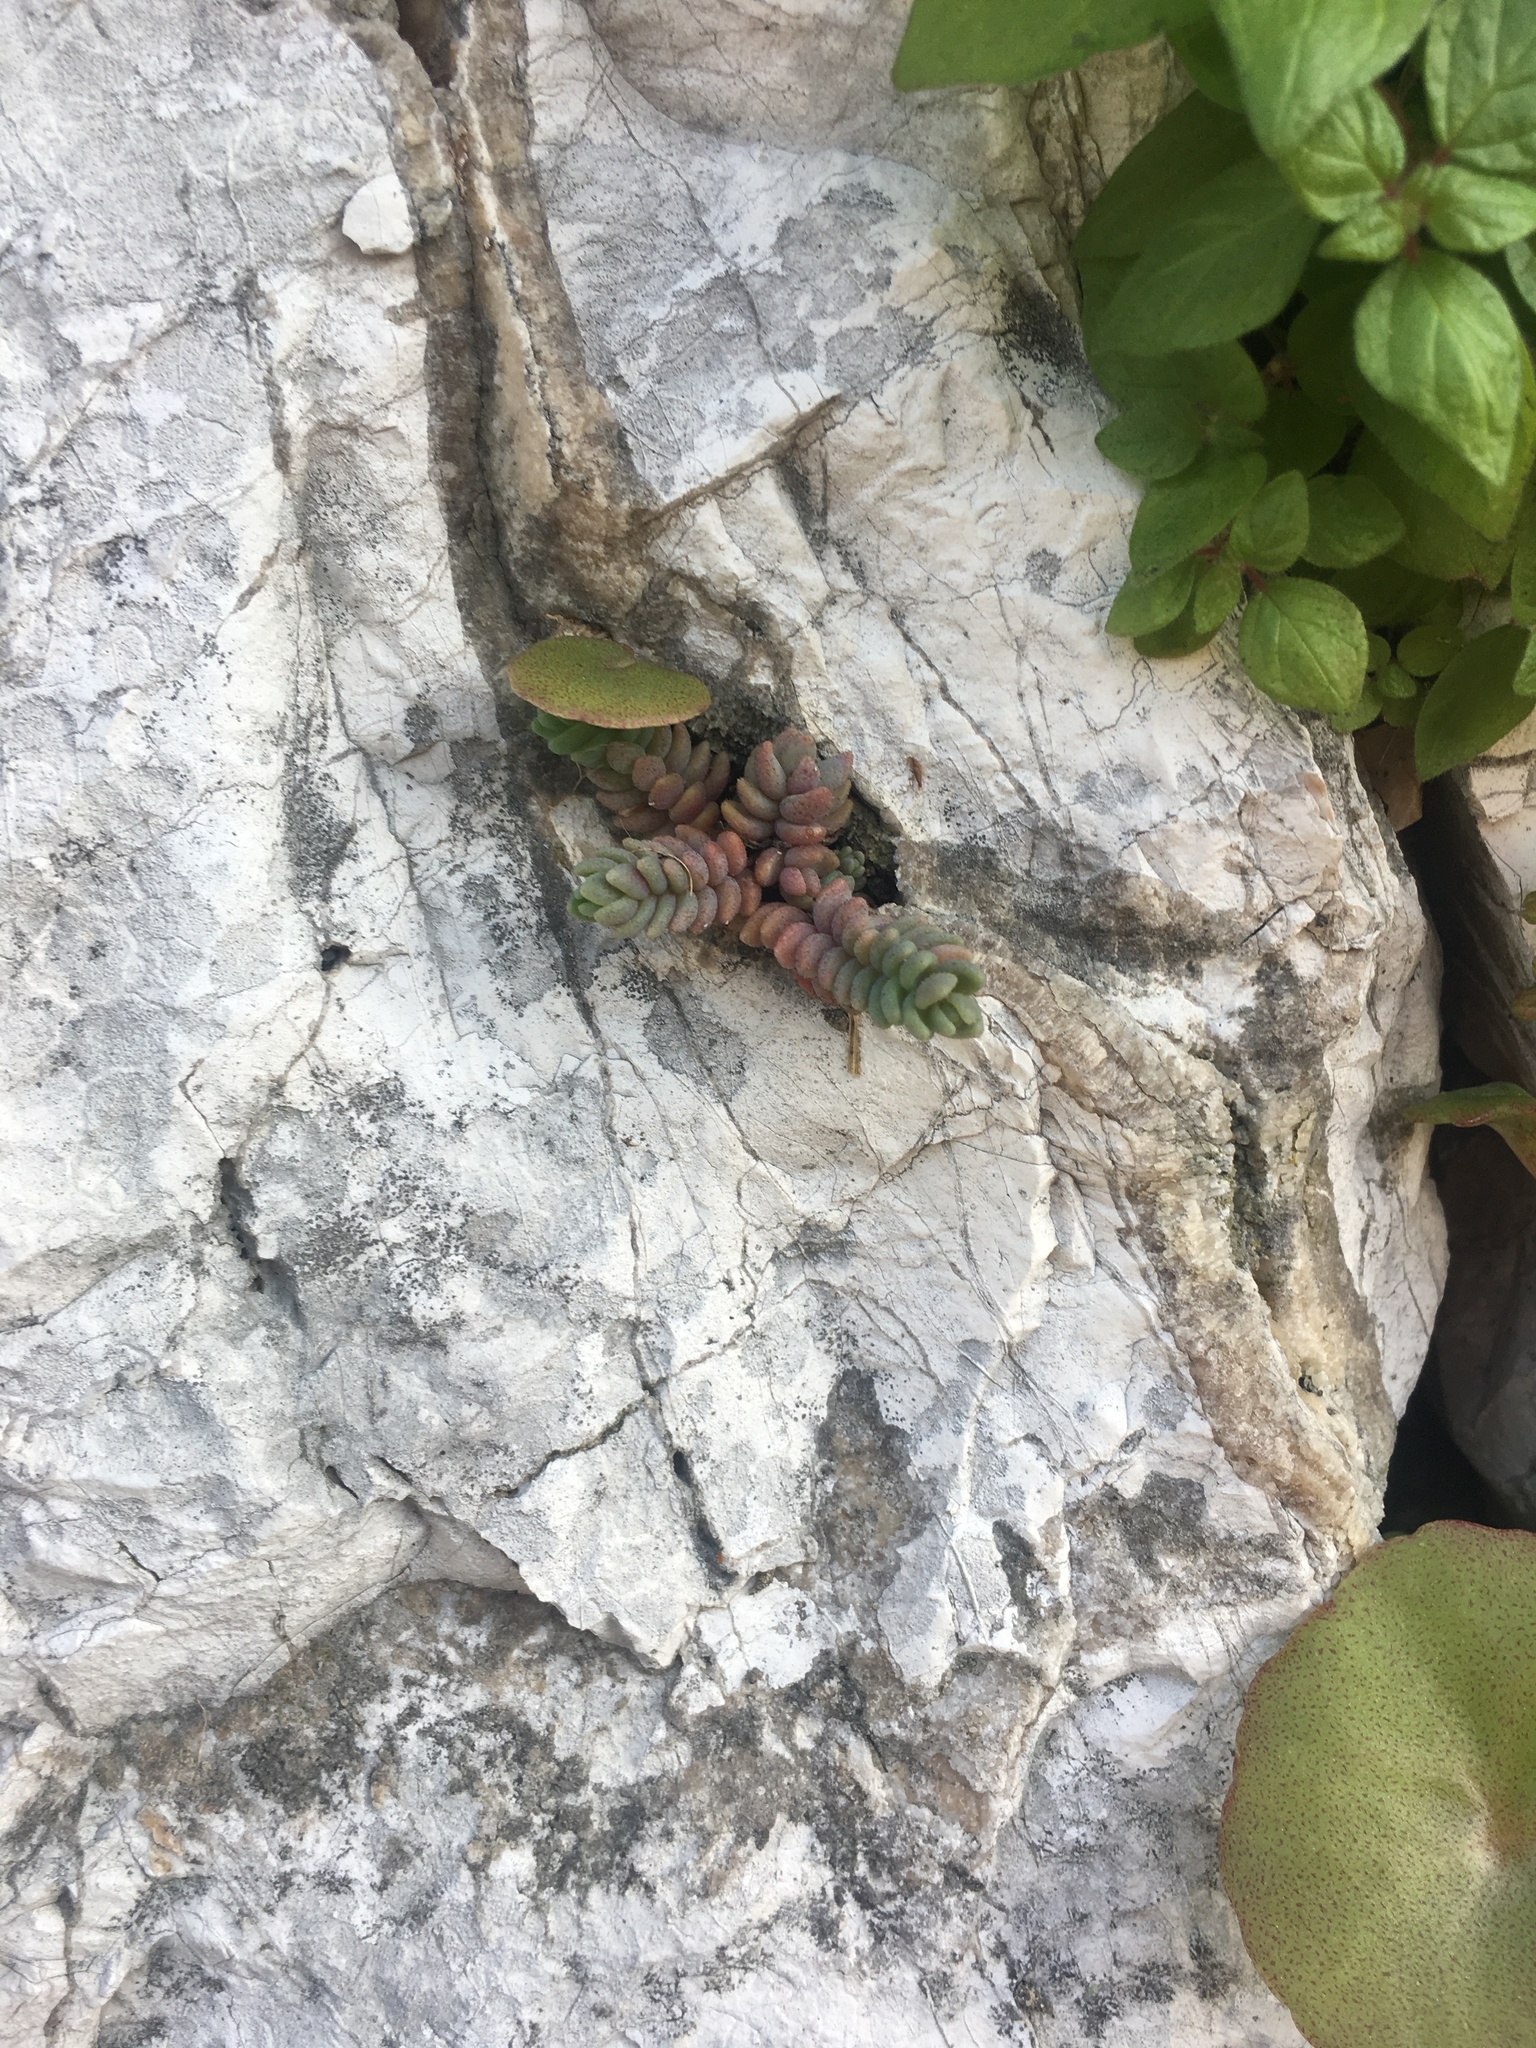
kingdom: Plantae
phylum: Tracheophyta
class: Magnoliopsida
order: Saxifragales
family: Crassulaceae
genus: Sedum
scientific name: Sedum dasyphyllum
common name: Thick-leaf stonecrop
